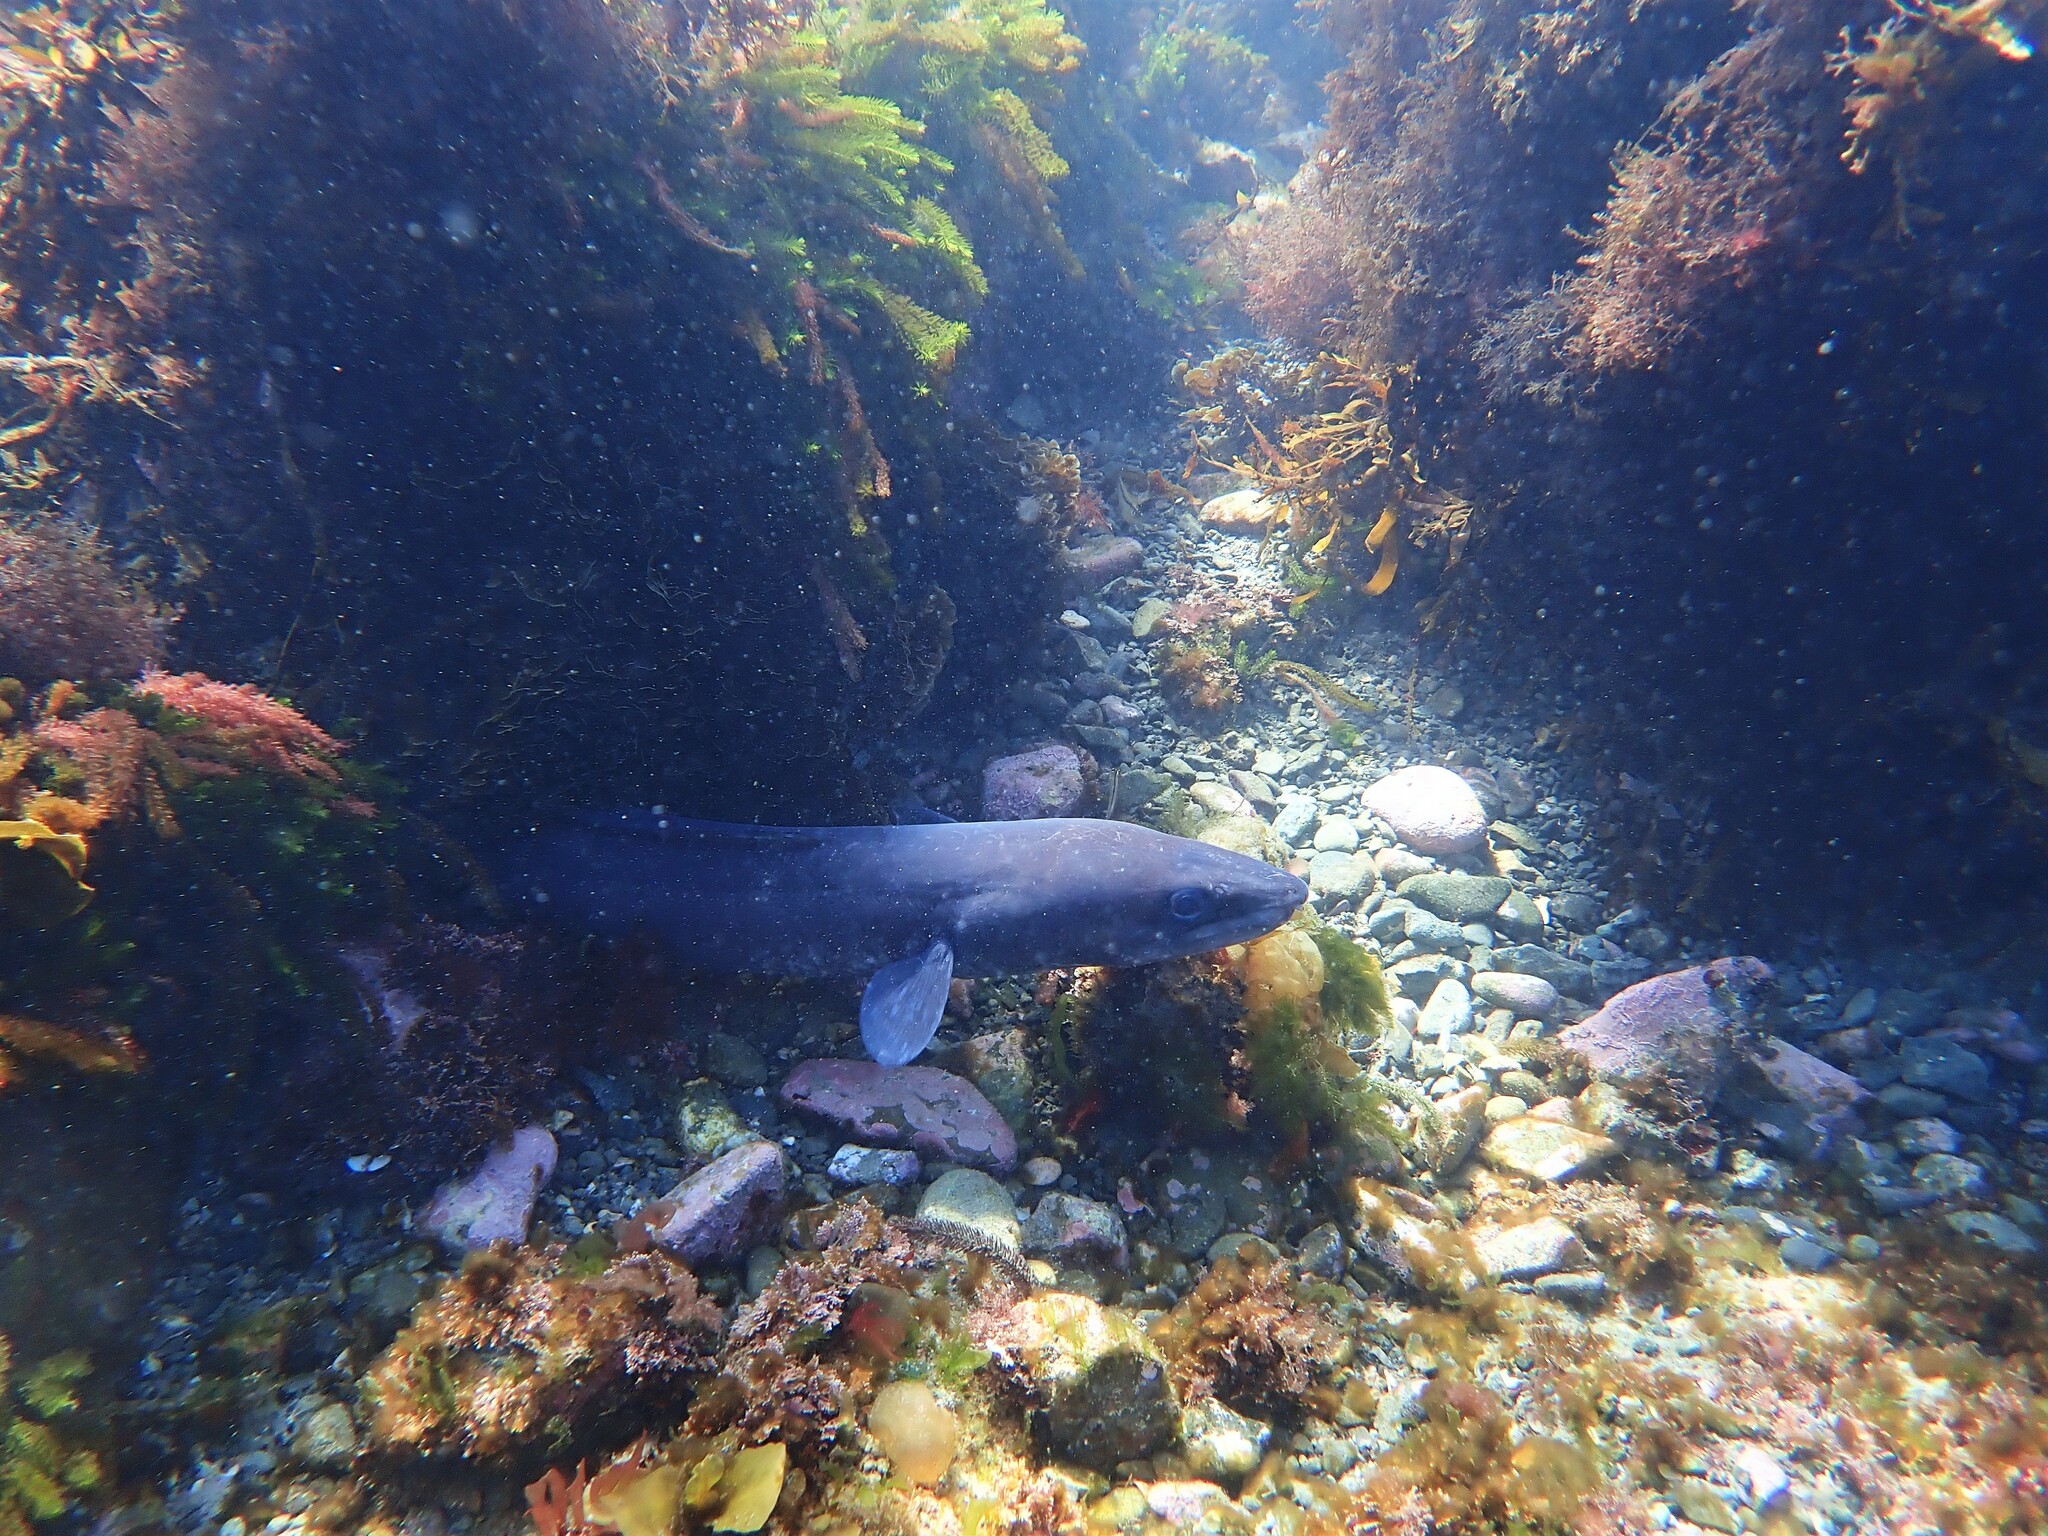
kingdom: Animalia
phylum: Chordata
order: Anguilliformes
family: Congridae
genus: Conger
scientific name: Conger verreauxi
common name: Conger eel
